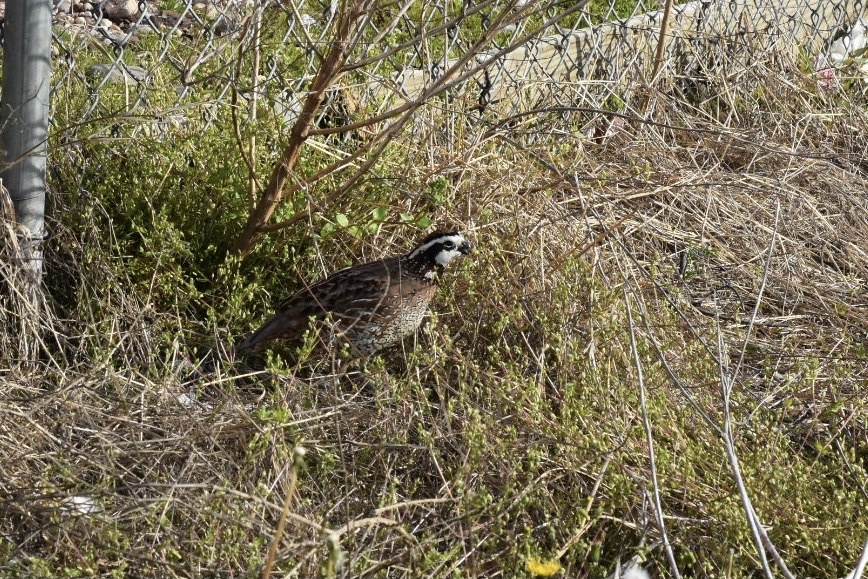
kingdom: Animalia
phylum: Chordata
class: Aves
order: Galliformes
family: Odontophoridae
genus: Colinus
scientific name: Colinus virginianus
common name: Northern bobwhite
